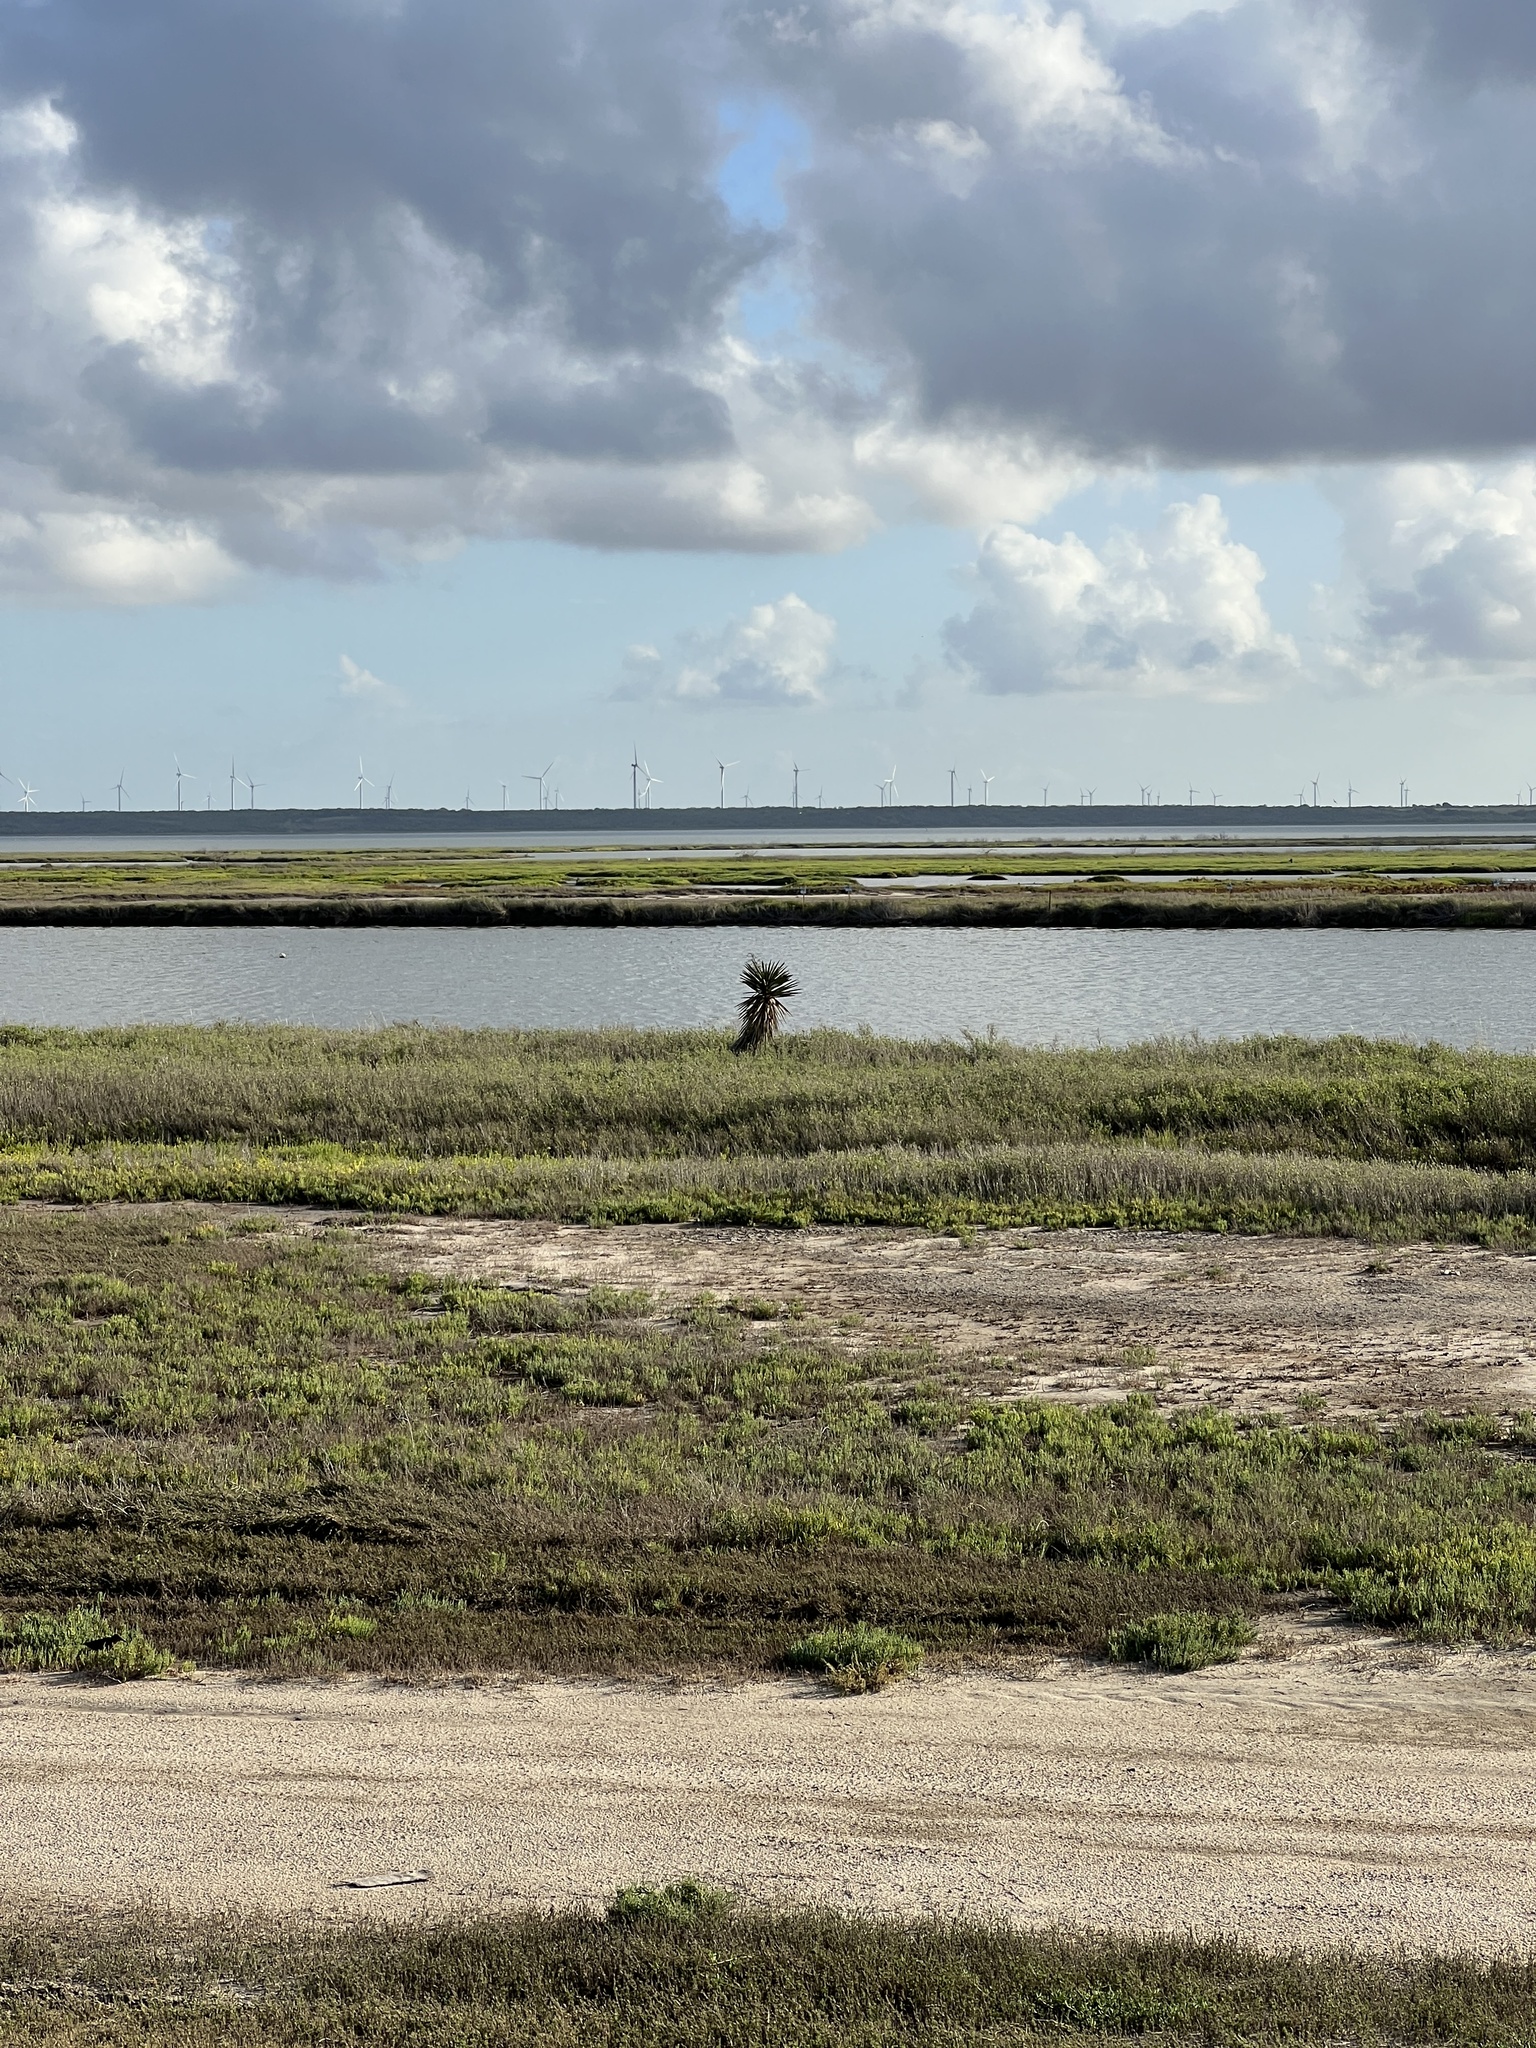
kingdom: Plantae
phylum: Tracheophyta
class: Liliopsida
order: Asparagales
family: Asparagaceae
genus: Yucca
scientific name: Yucca treculiana
